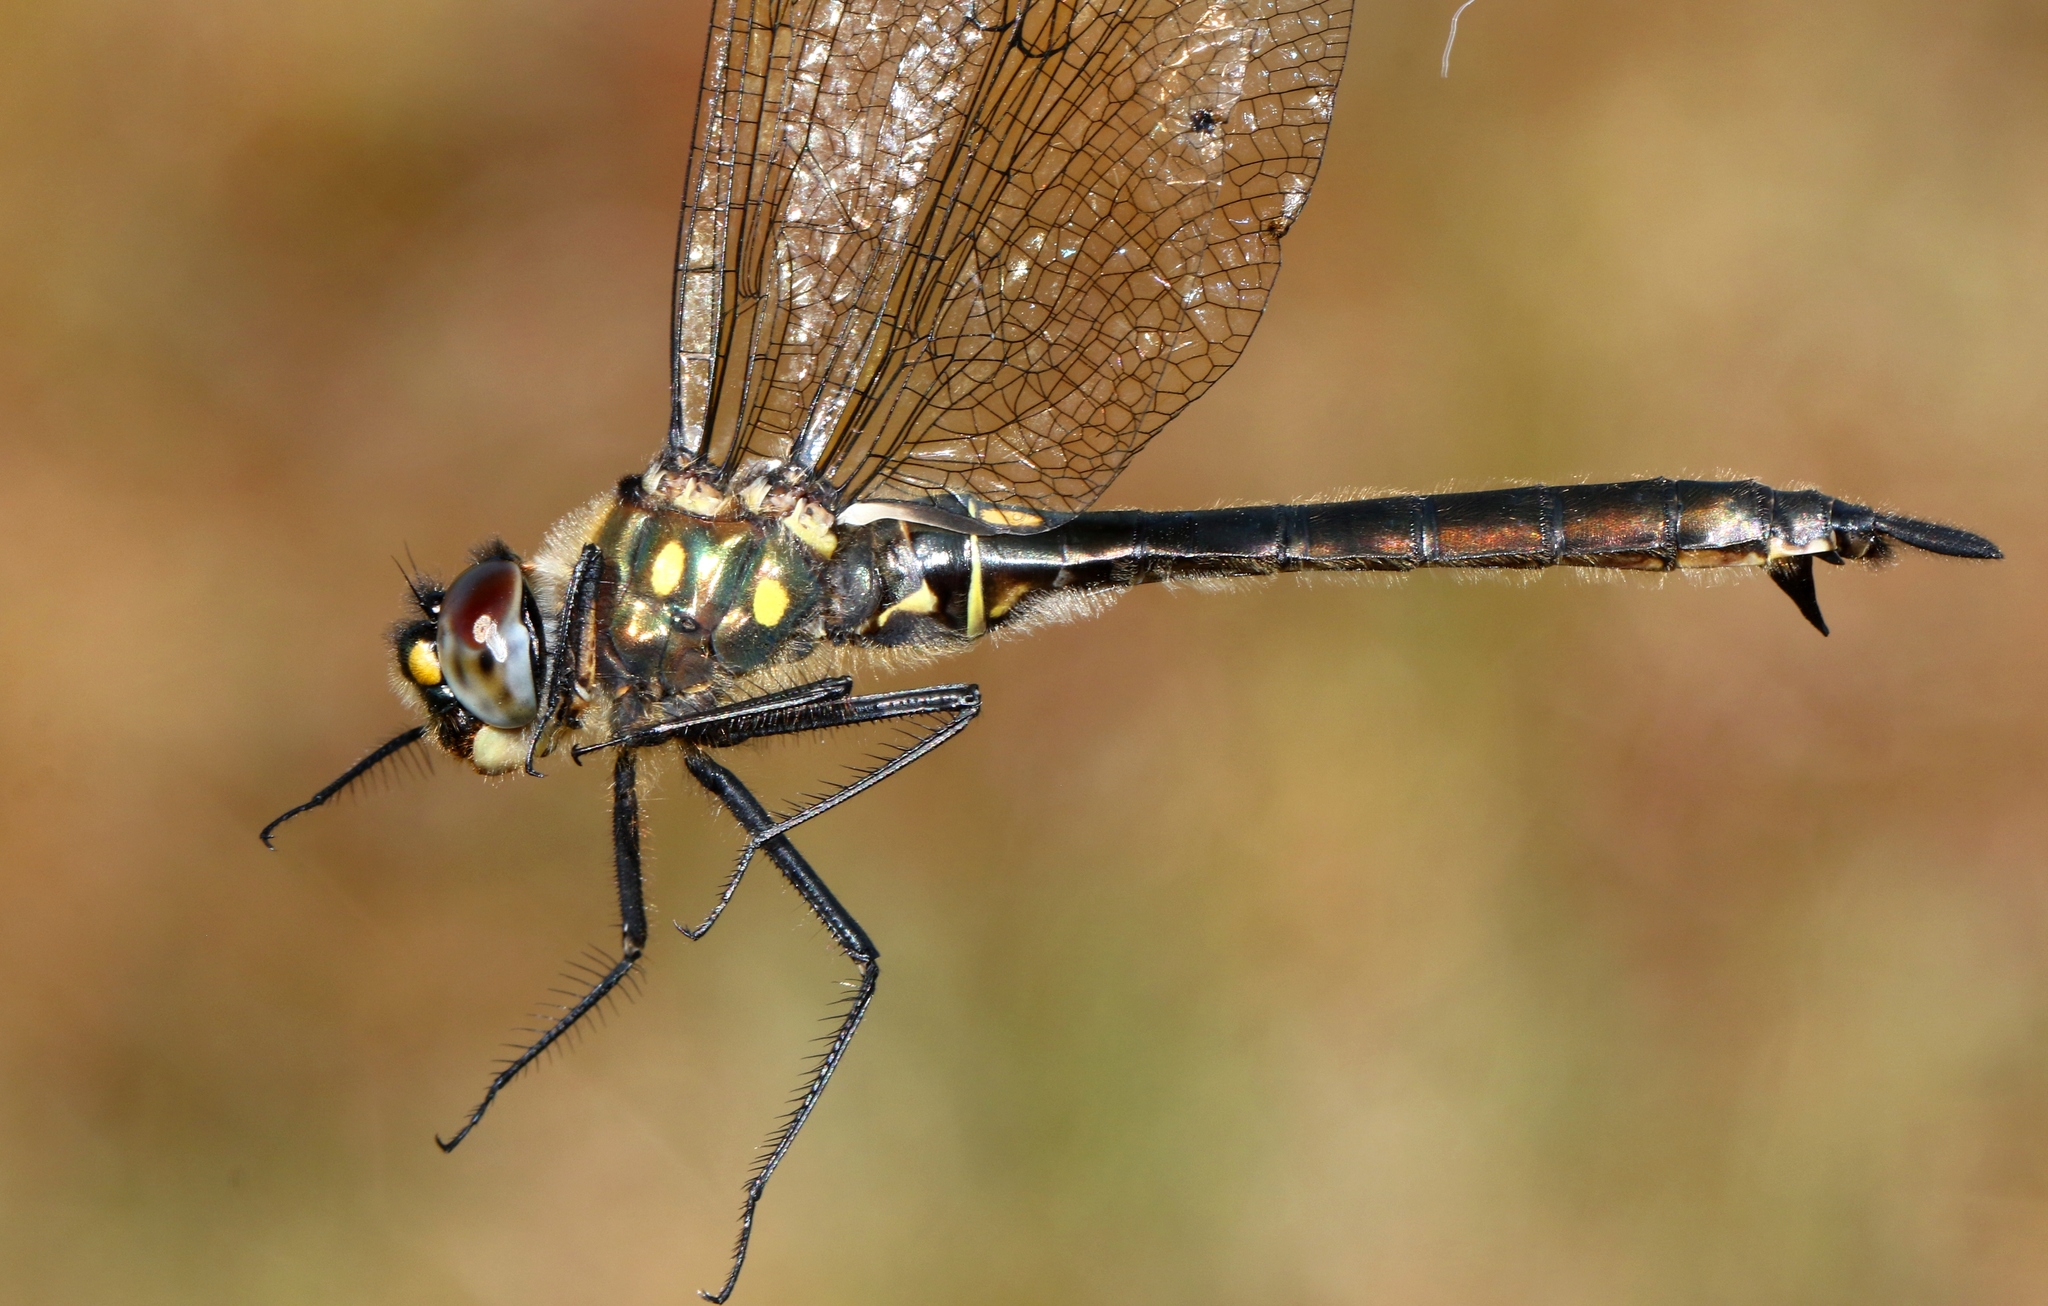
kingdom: Animalia
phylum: Arthropoda
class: Insecta
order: Odonata
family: Corduliidae
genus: Somatochlora
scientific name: Somatochlora minor
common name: Ocellated emerald
